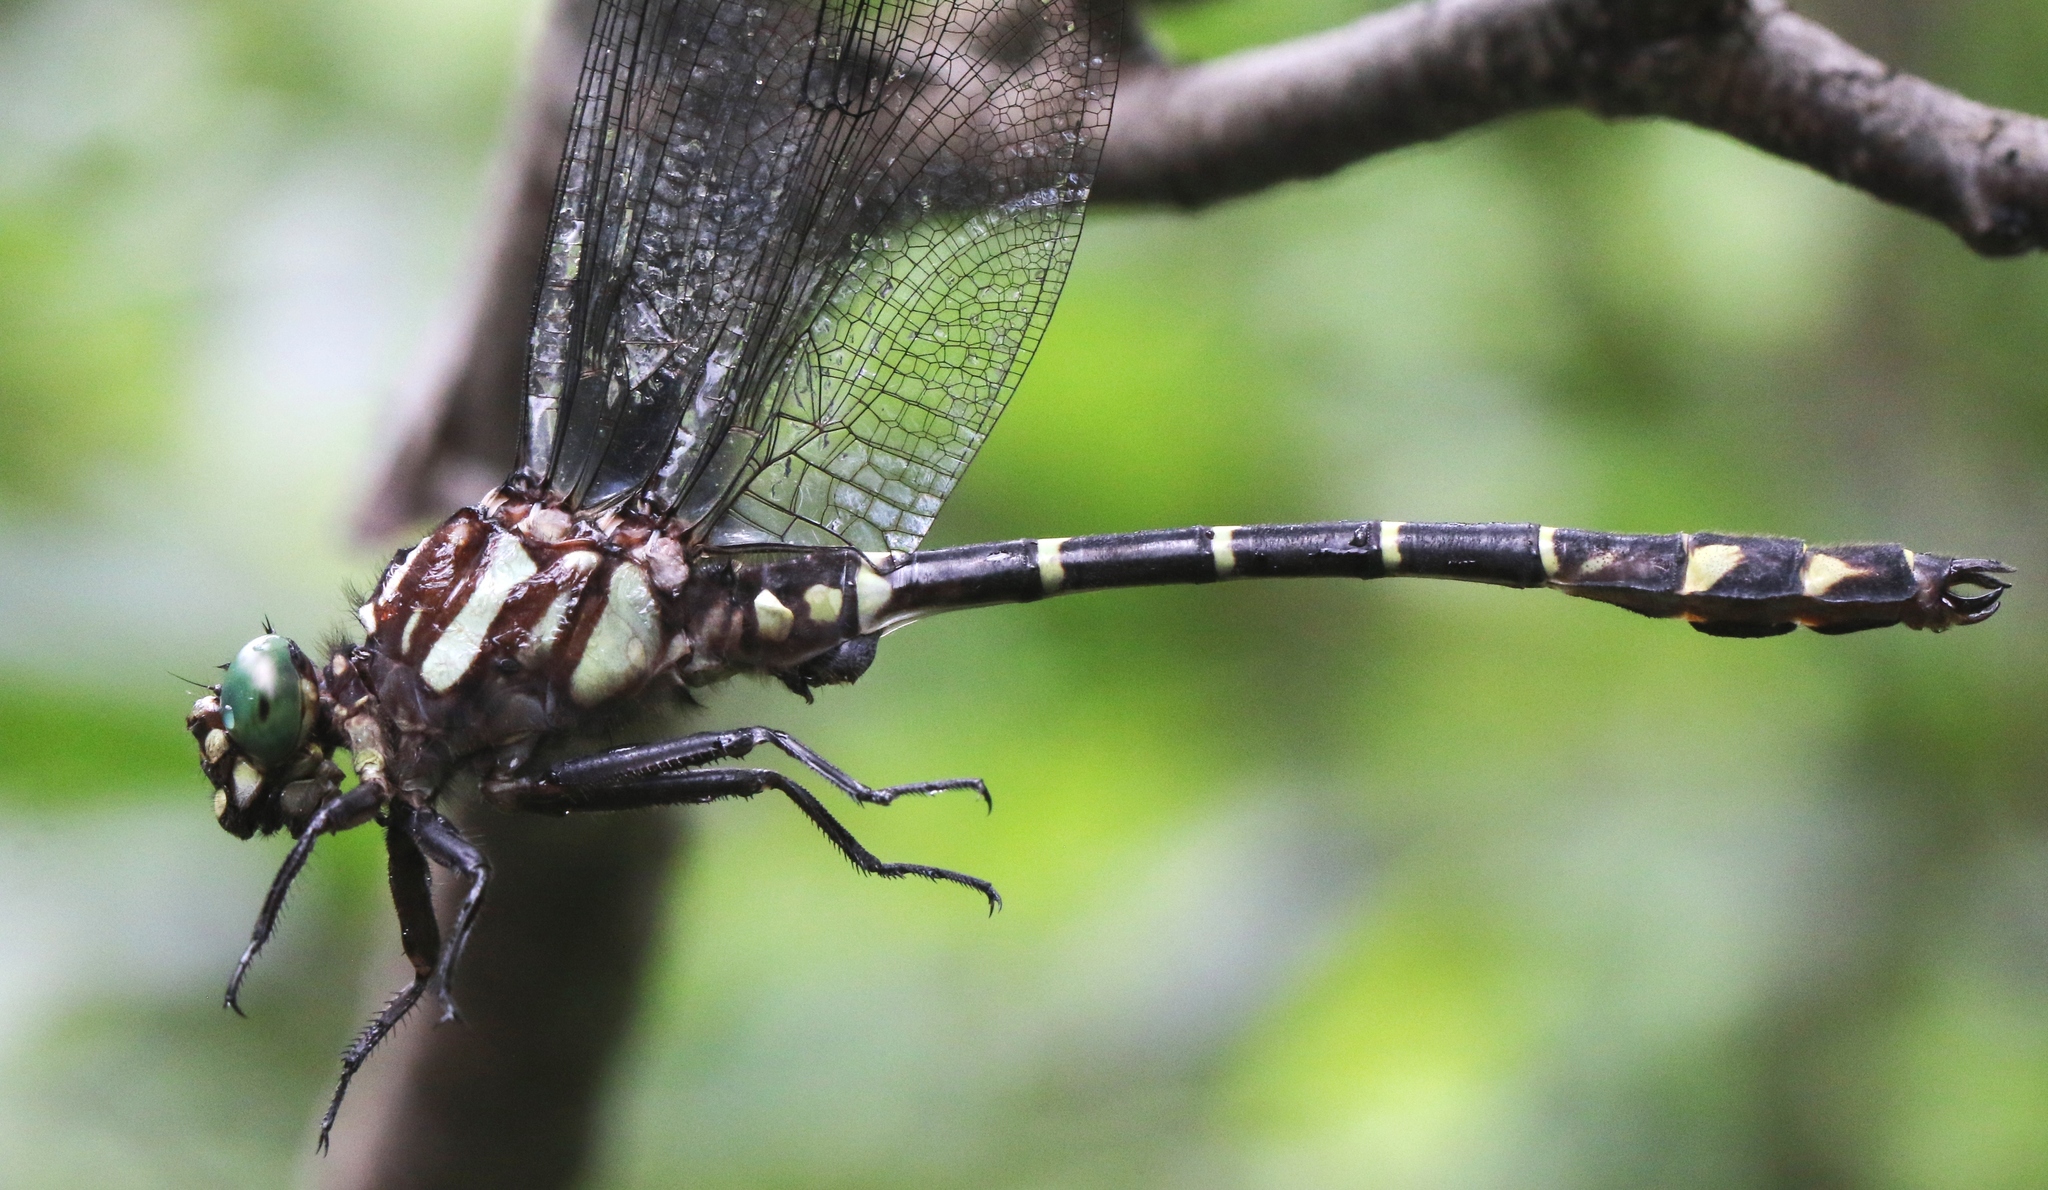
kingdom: Animalia
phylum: Arthropoda
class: Insecta
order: Odonata
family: Gomphidae
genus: Stylurus
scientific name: Stylurus scudderi
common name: Zebra clubtail
